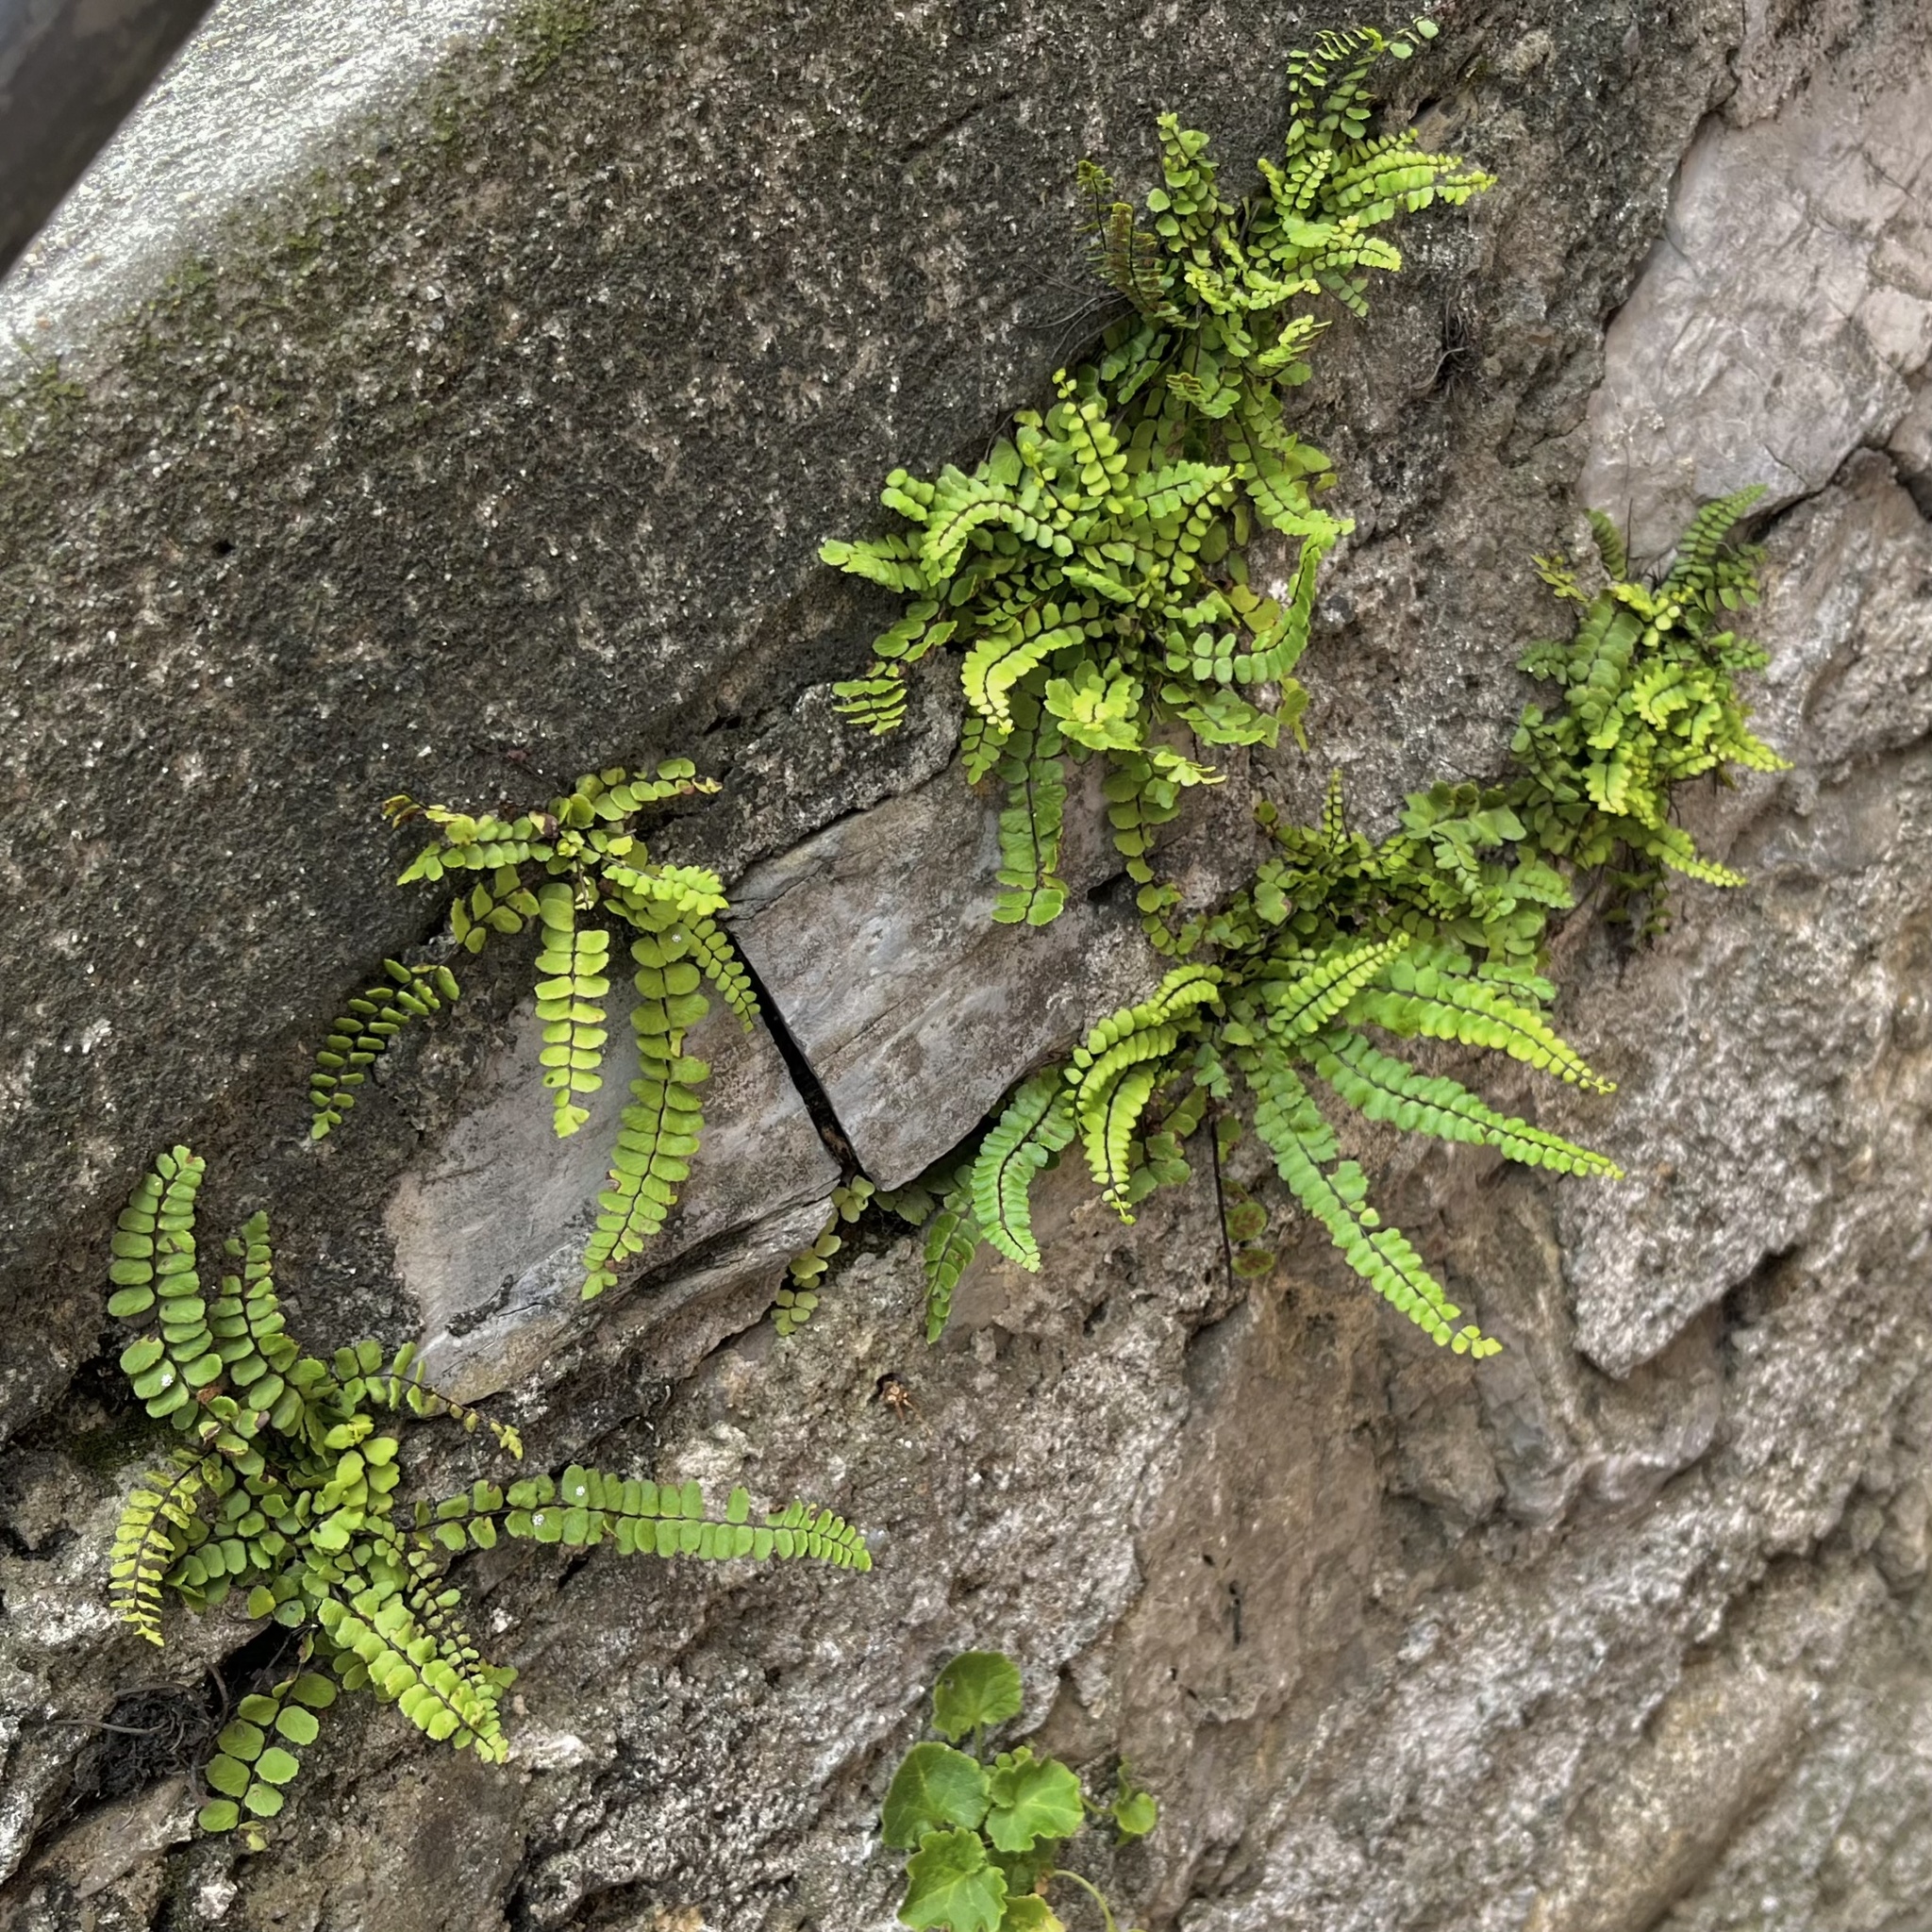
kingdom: Plantae
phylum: Tracheophyta
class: Polypodiopsida
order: Polypodiales
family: Aspleniaceae
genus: Asplenium
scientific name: Asplenium trichomanes
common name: Maidenhair spleenwort
